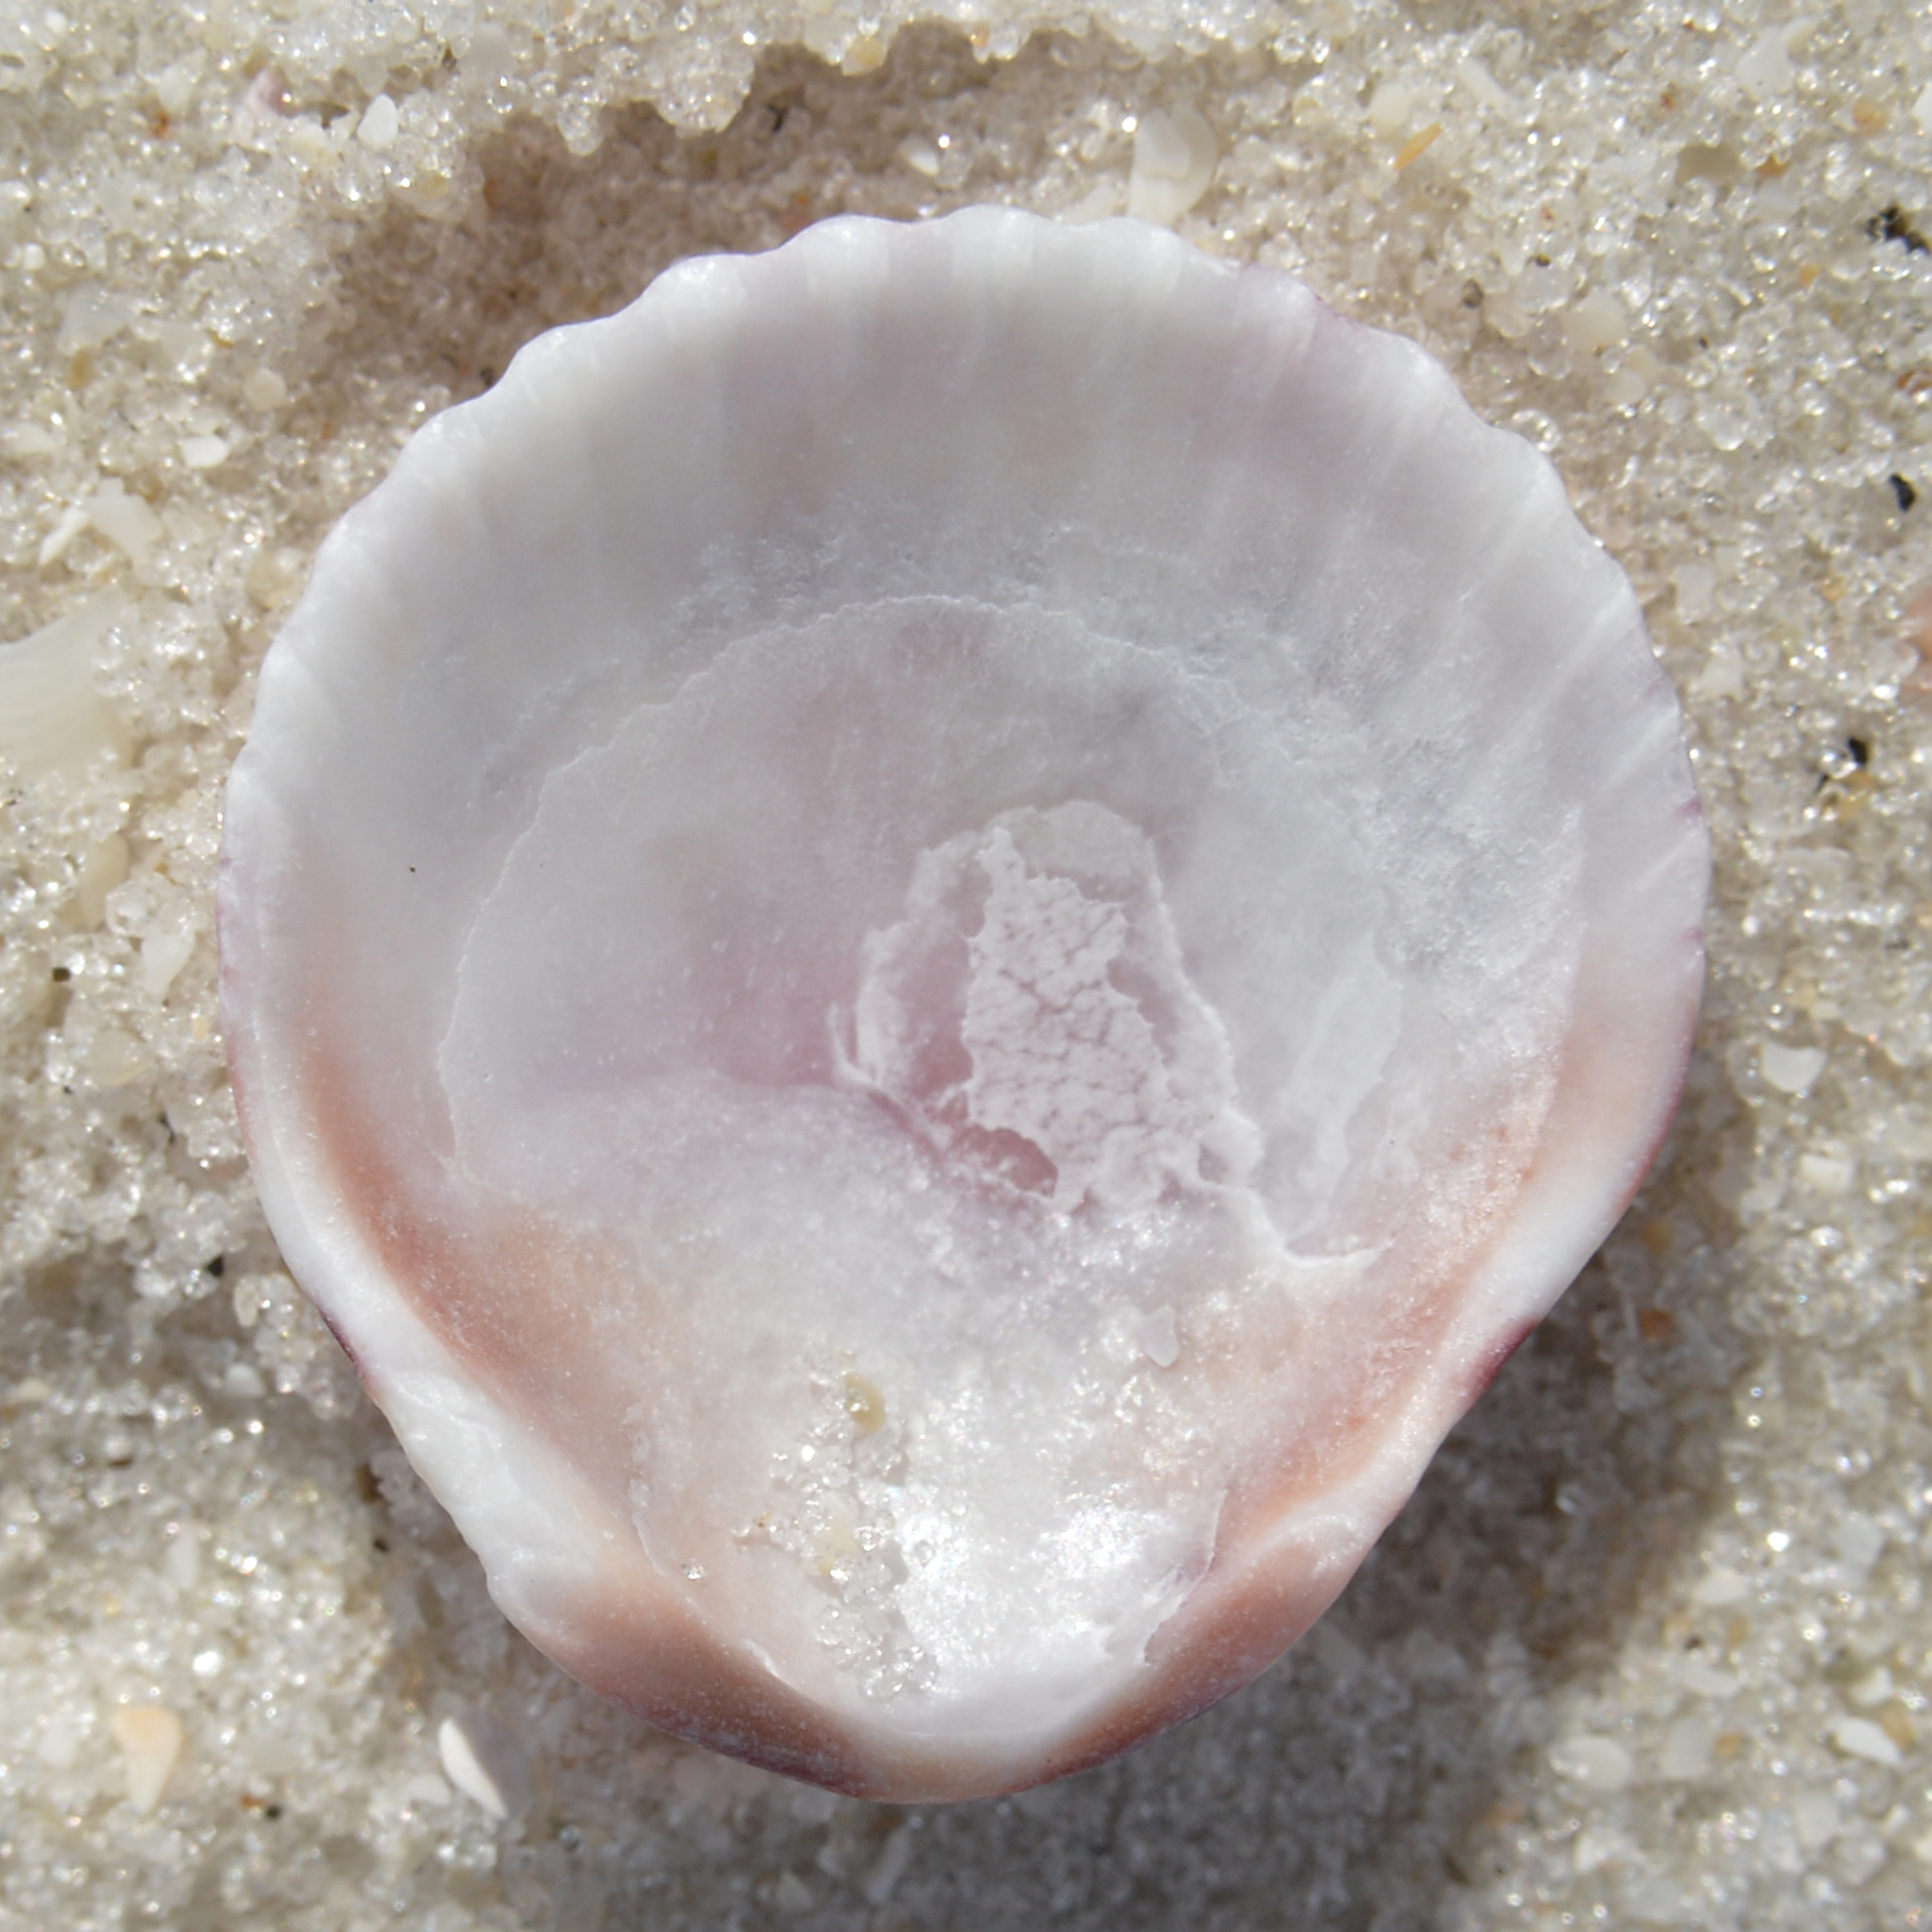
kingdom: Animalia
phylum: Mollusca
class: Bivalvia
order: Pectinida
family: Pectinidae
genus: Argopecten
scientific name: Argopecten gibbus
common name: Atlantic calico scallop
